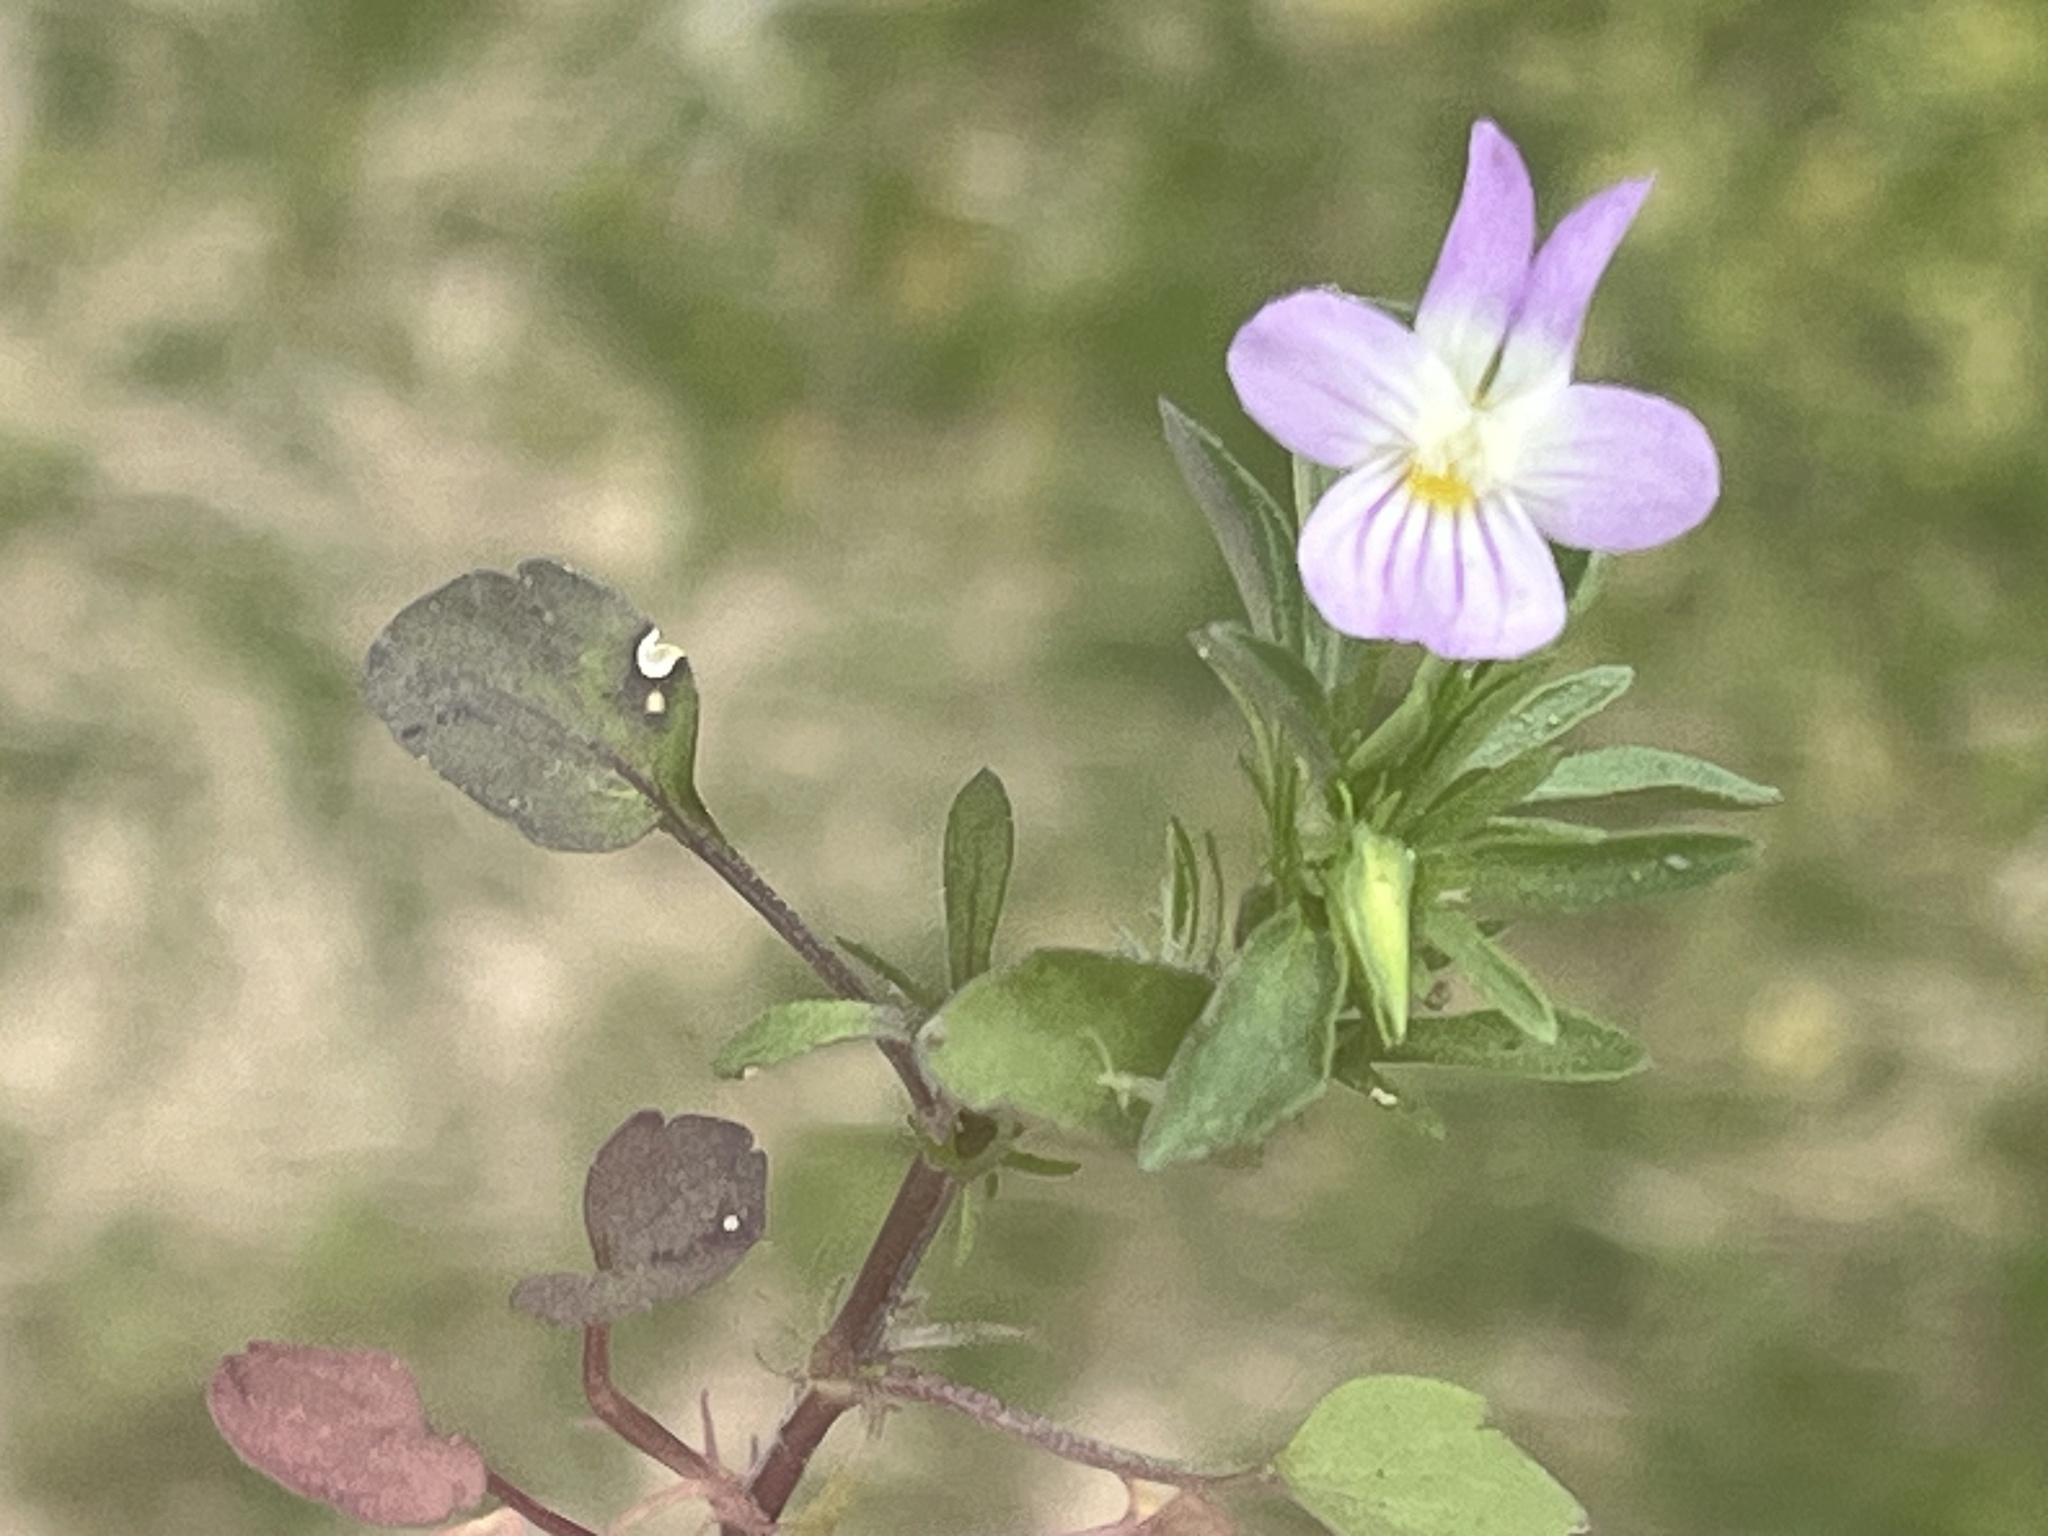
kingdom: Plantae
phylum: Tracheophyta
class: Magnoliopsida
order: Malpighiales
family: Violaceae
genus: Viola
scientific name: Viola rafinesquei
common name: American field pansy
